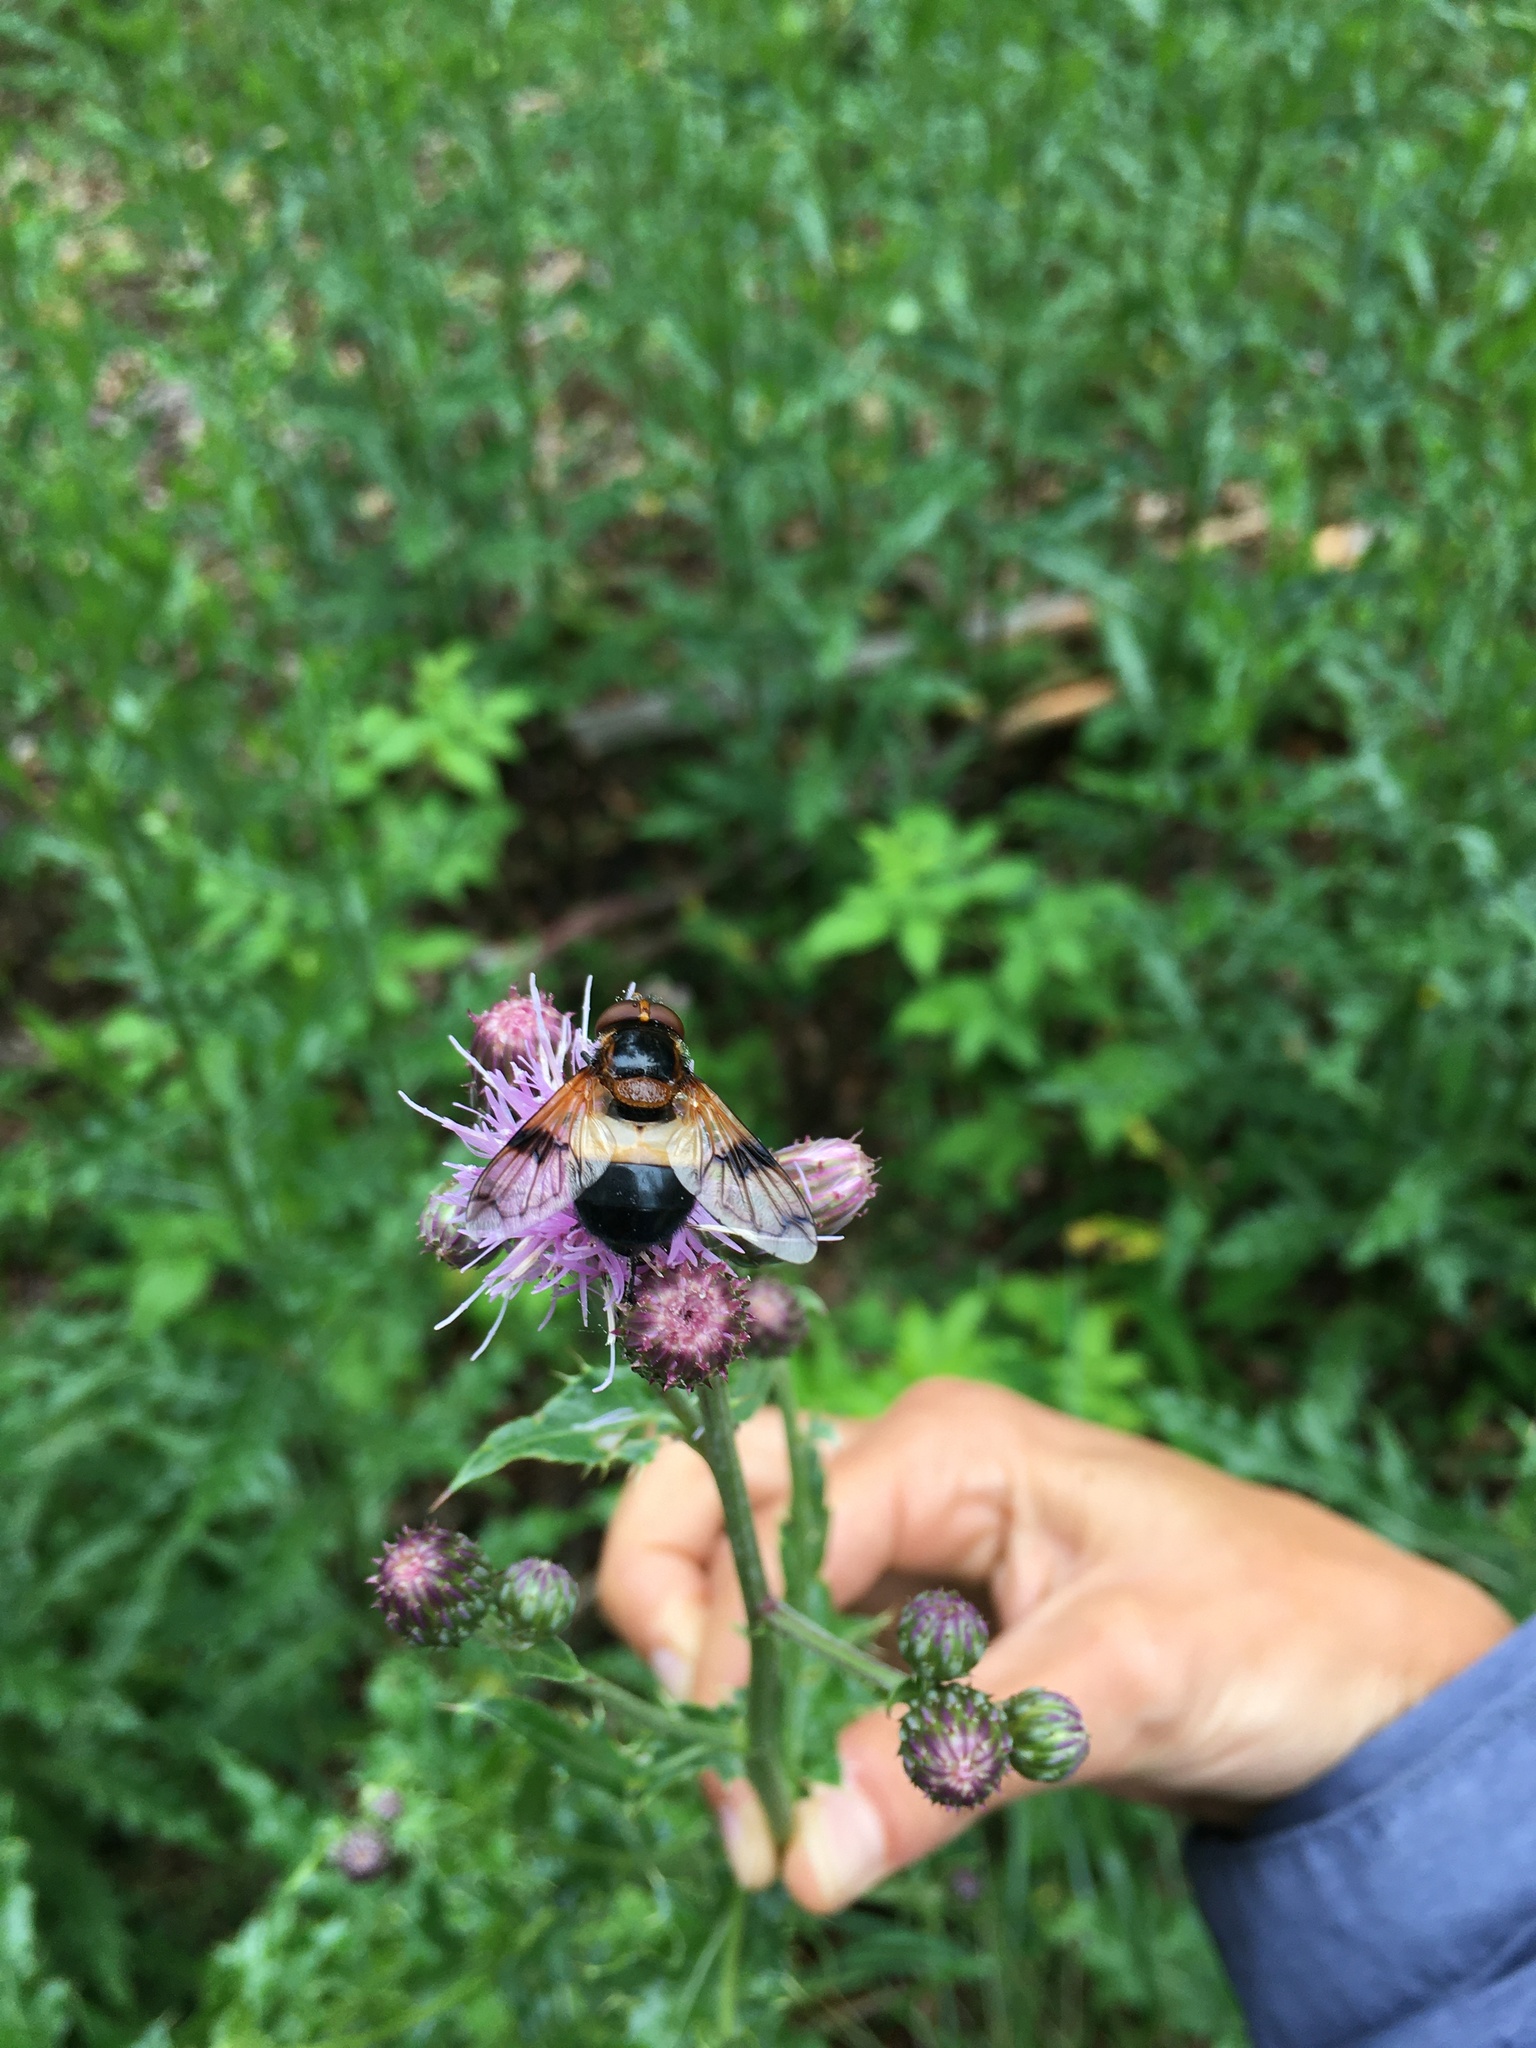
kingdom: Animalia
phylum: Arthropoda
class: Insecta
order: Diptera
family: Syrphidae
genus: Volucella
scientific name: Volucella pellucens
